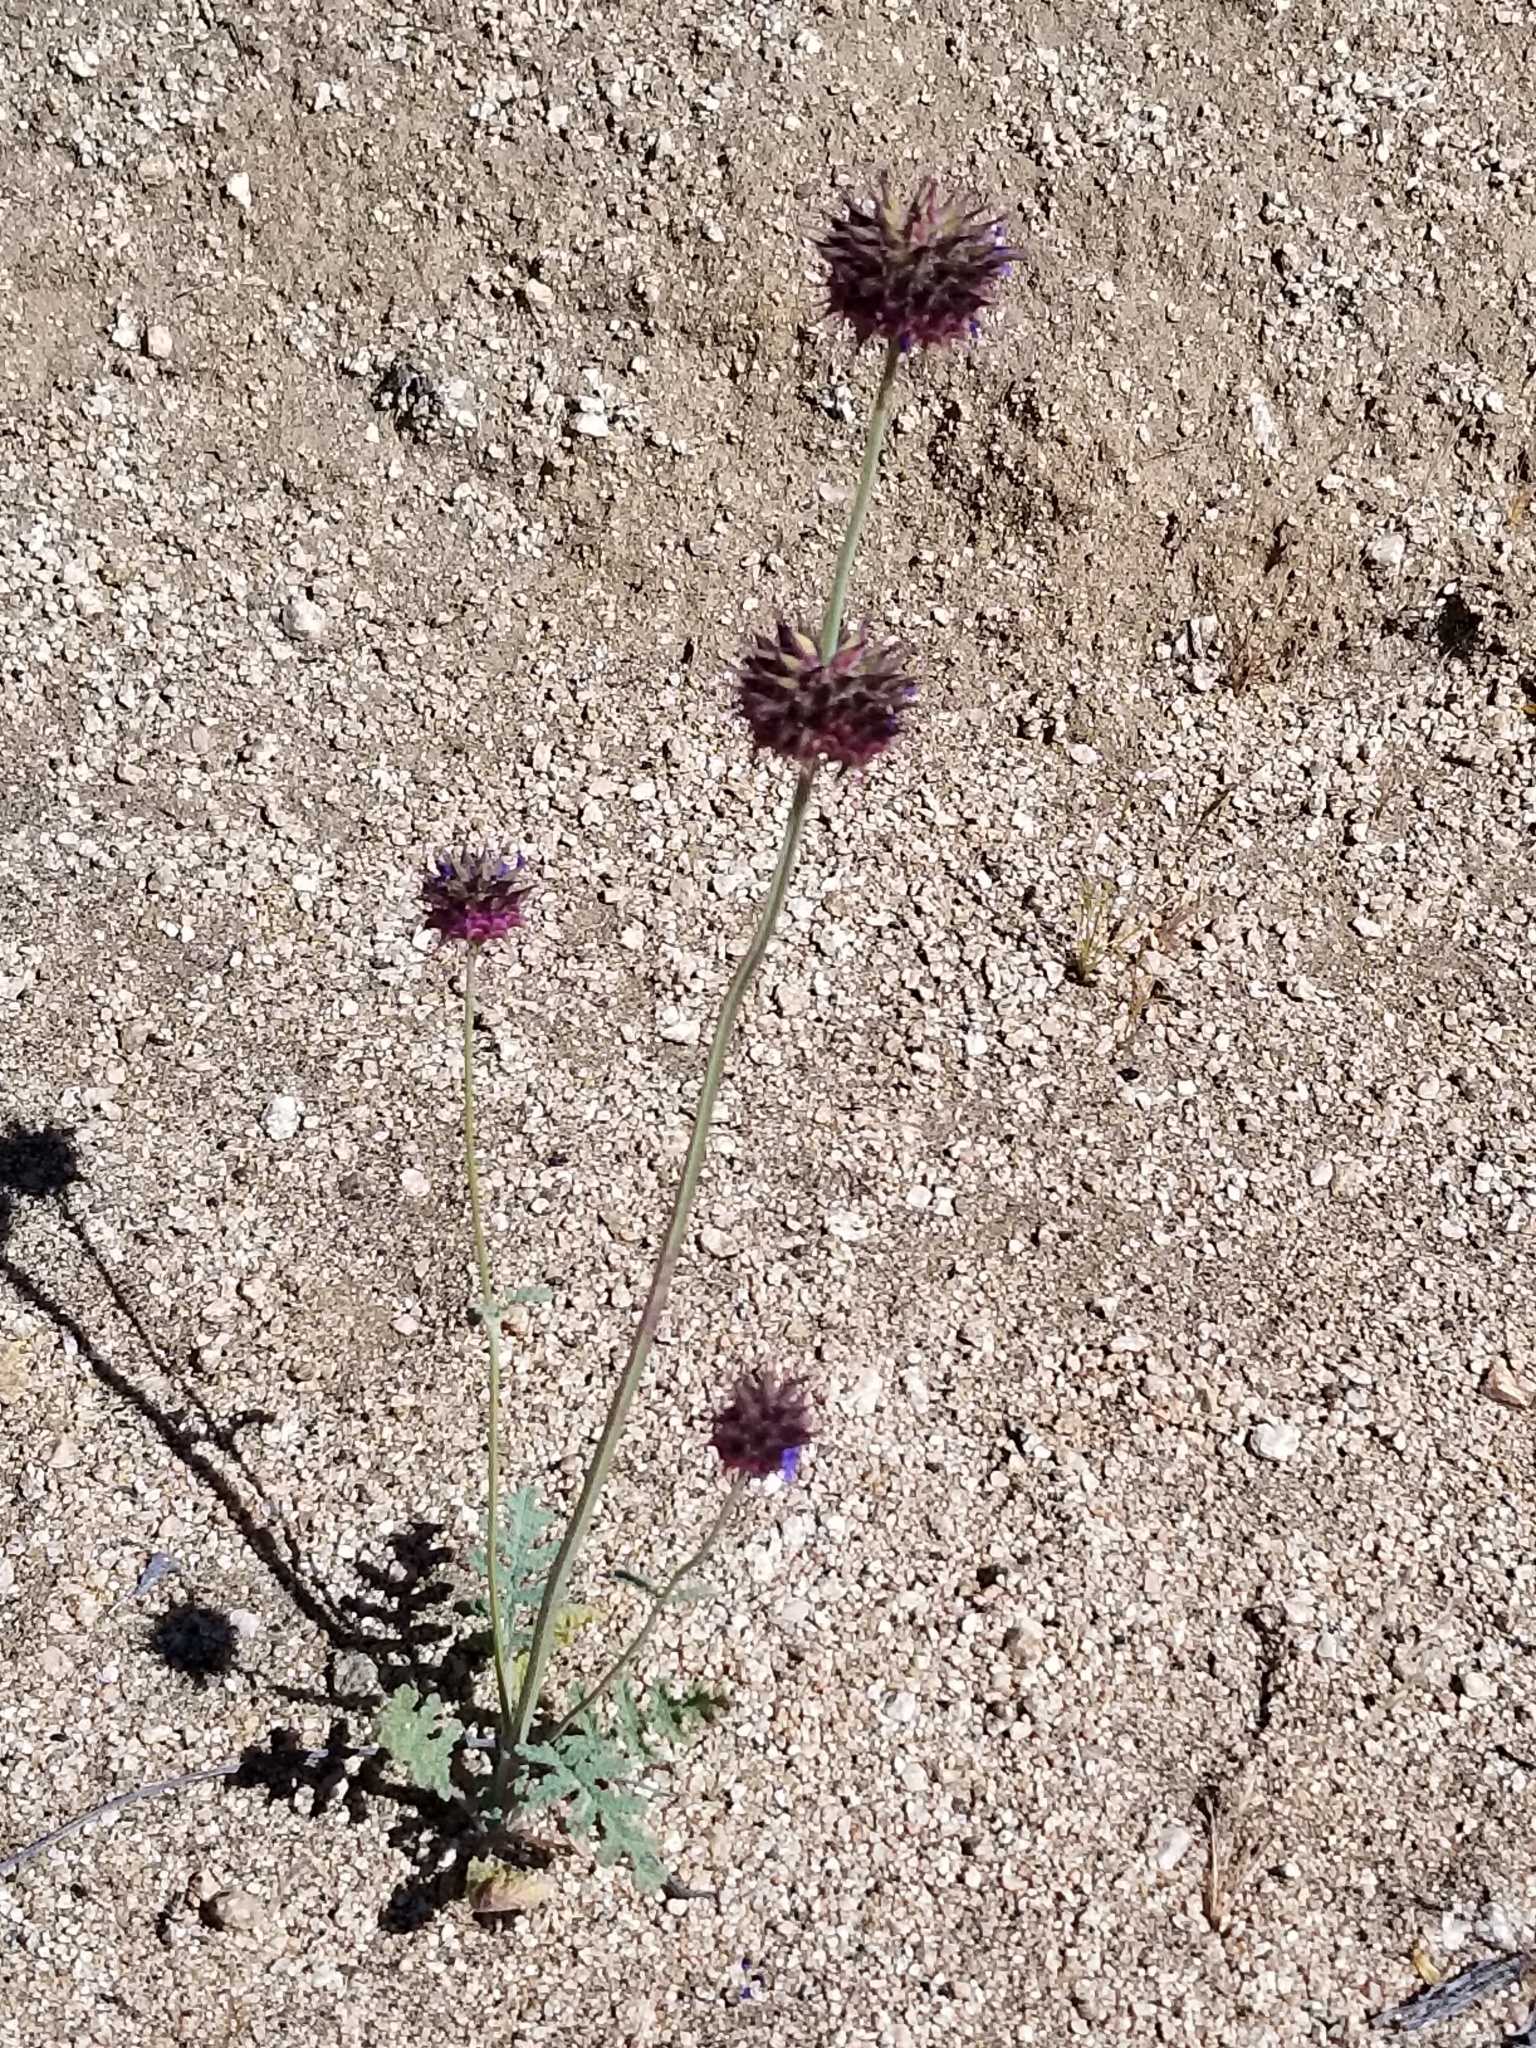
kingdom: Plantae
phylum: Tracheophyta
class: Magnoliopsida
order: Lamiales
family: Lamiaceae
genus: Salvia
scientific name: Salvia columbariae
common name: Chia
